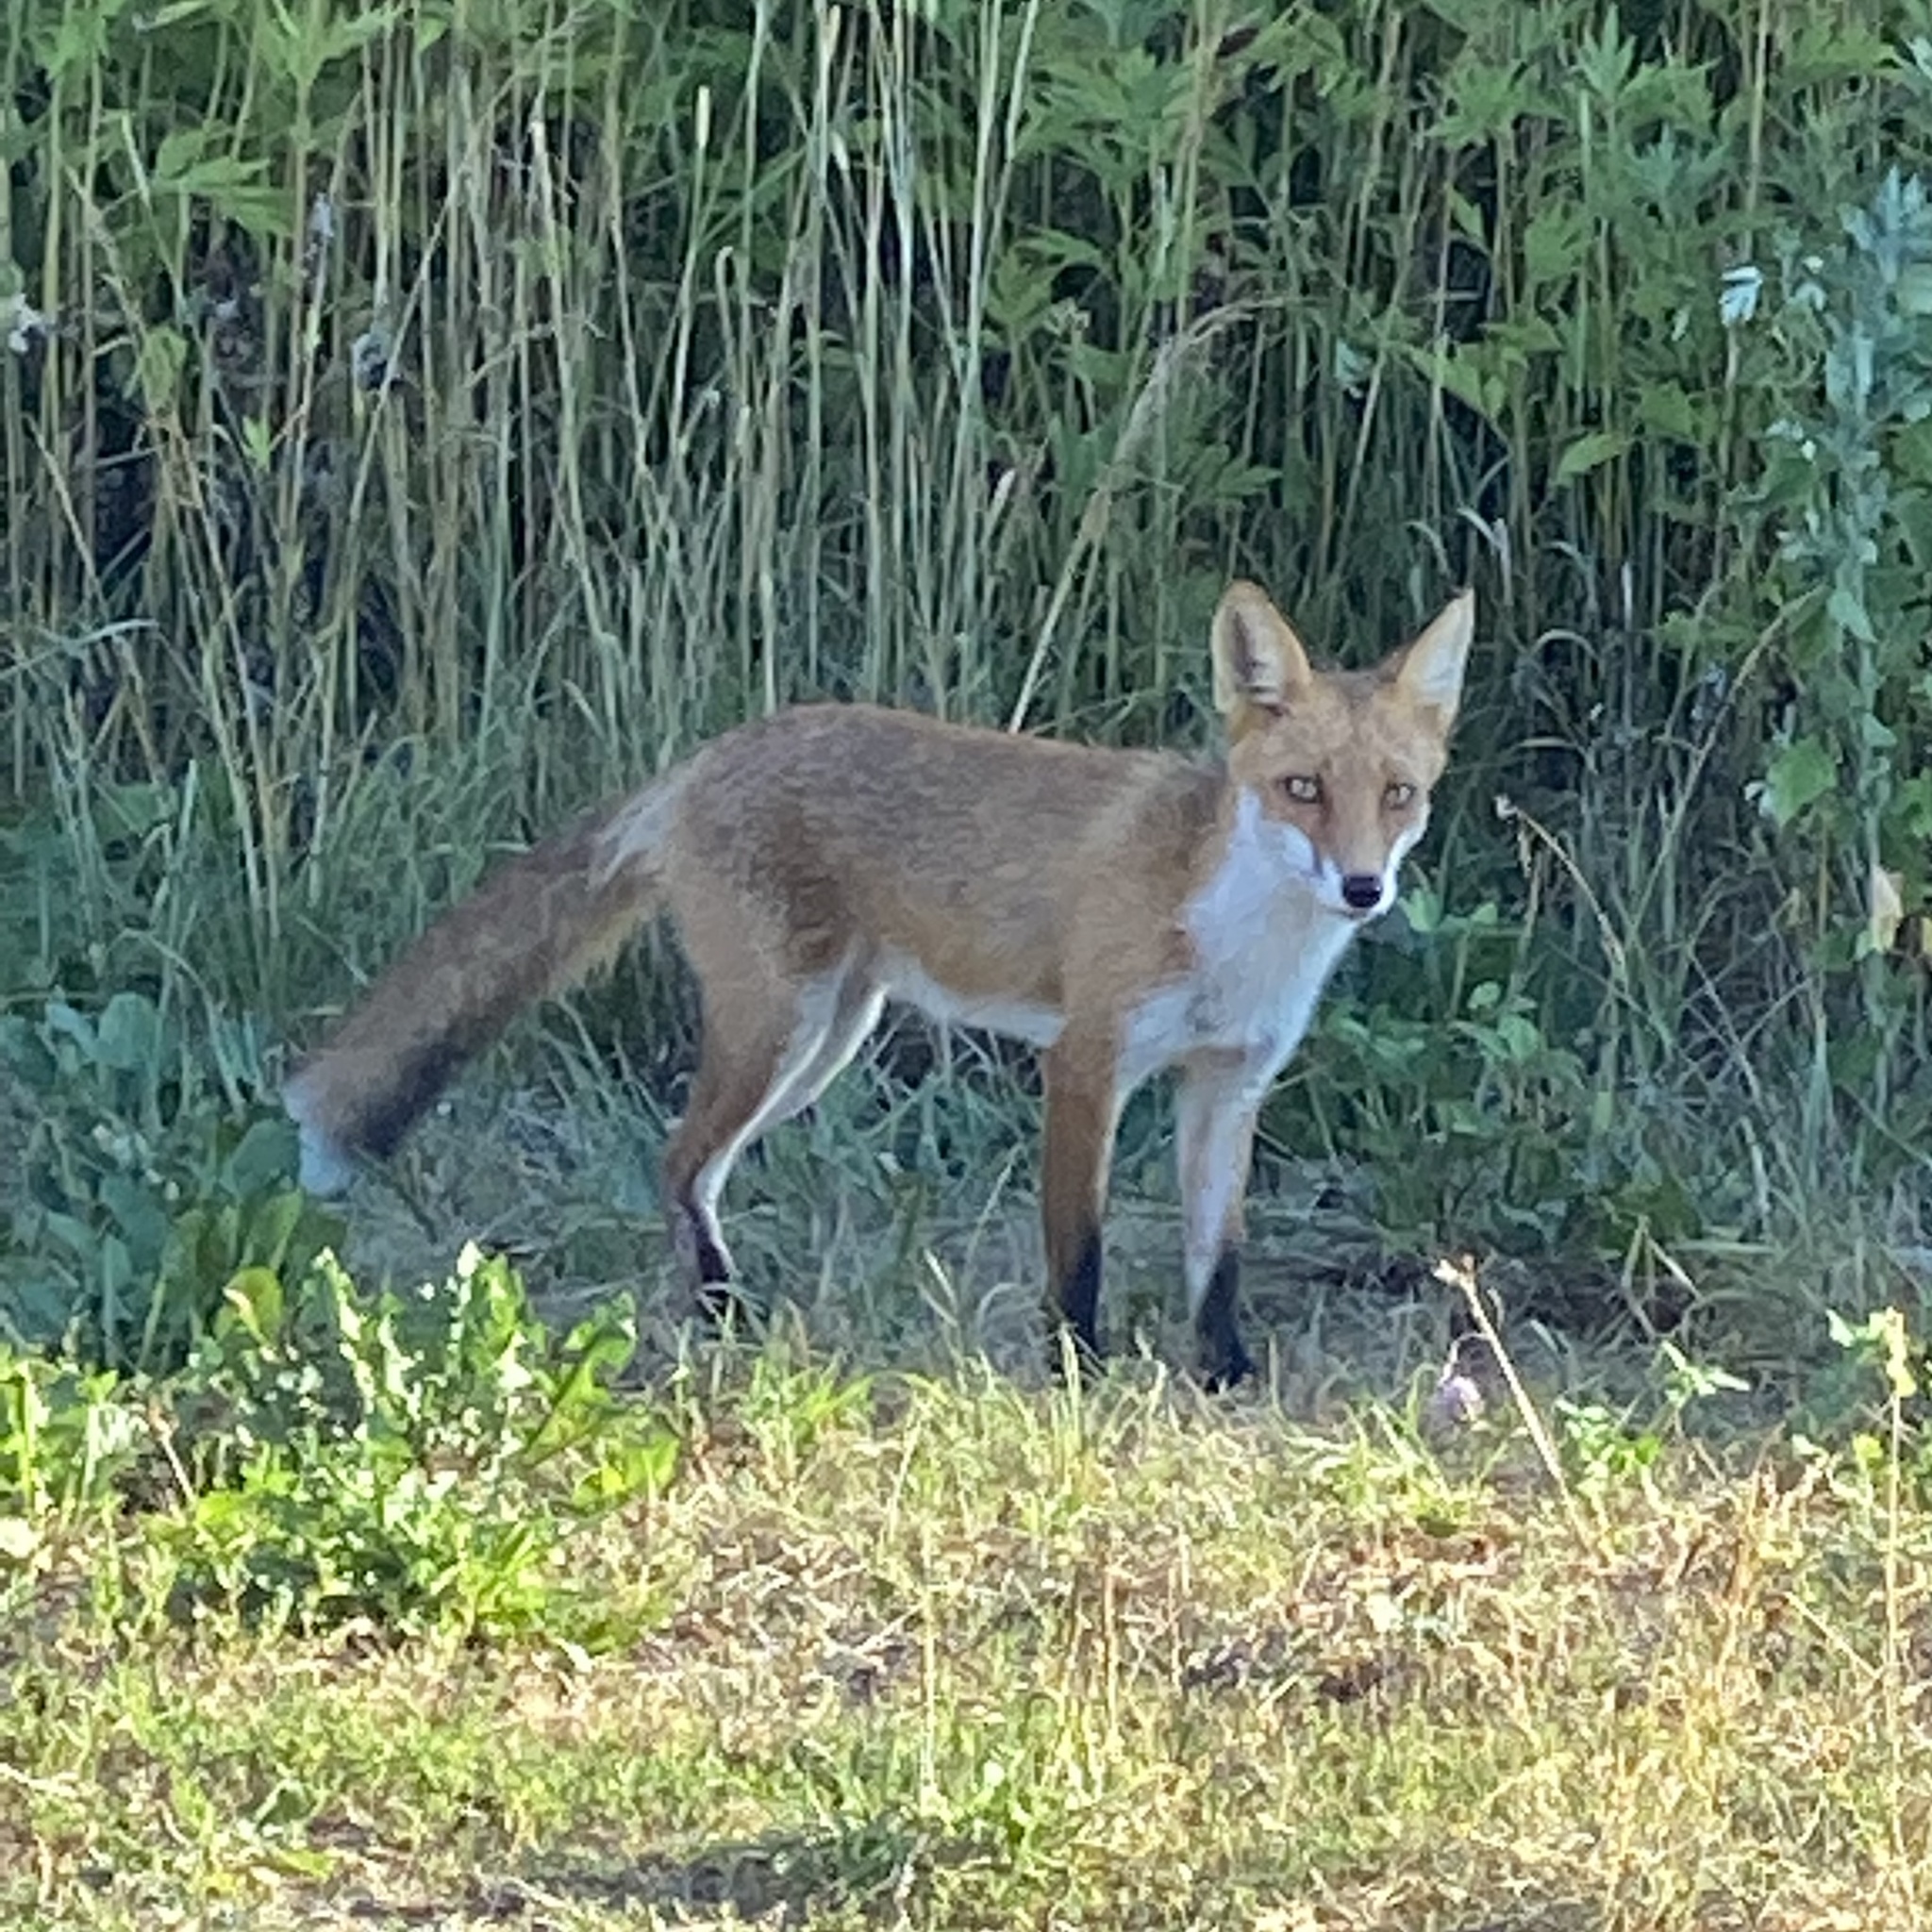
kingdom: Animalia
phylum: Chordata
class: Mammalia
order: Carnivora
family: Canidae
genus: Vulpes
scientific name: Vulpes vulpes
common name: Red fox
